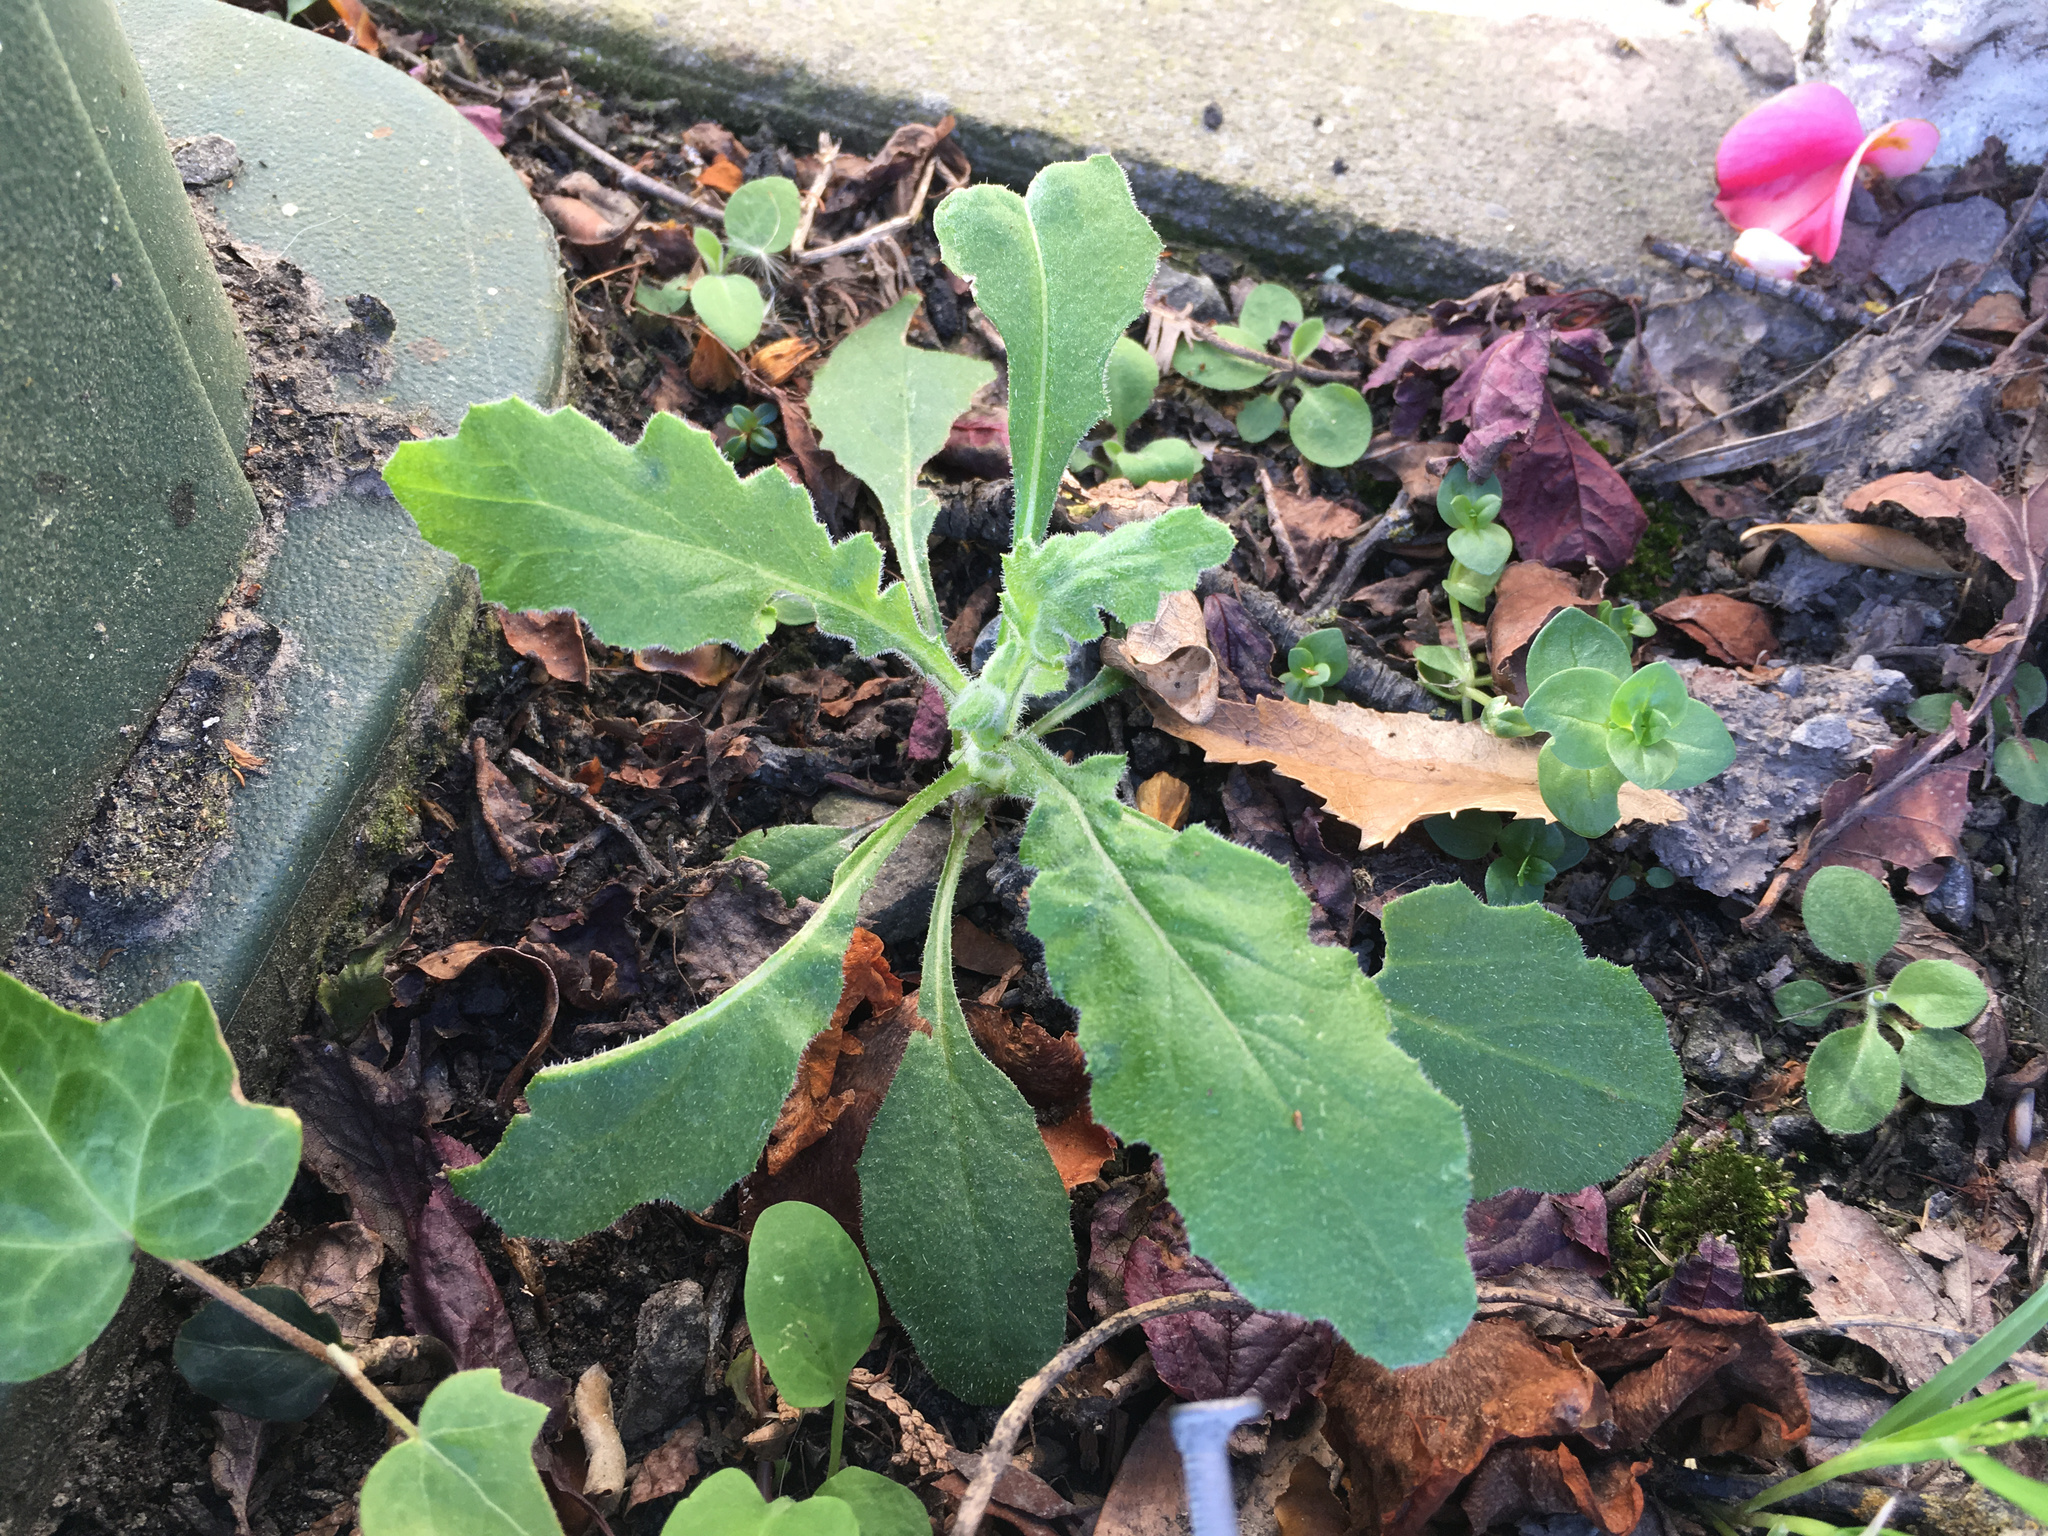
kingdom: Plantae
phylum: Tracheophyta
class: Magnoliopsida
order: Asterales
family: Asteraceae
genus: Senecio
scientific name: Senecio glomeratus
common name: Cutleaf burnweed
